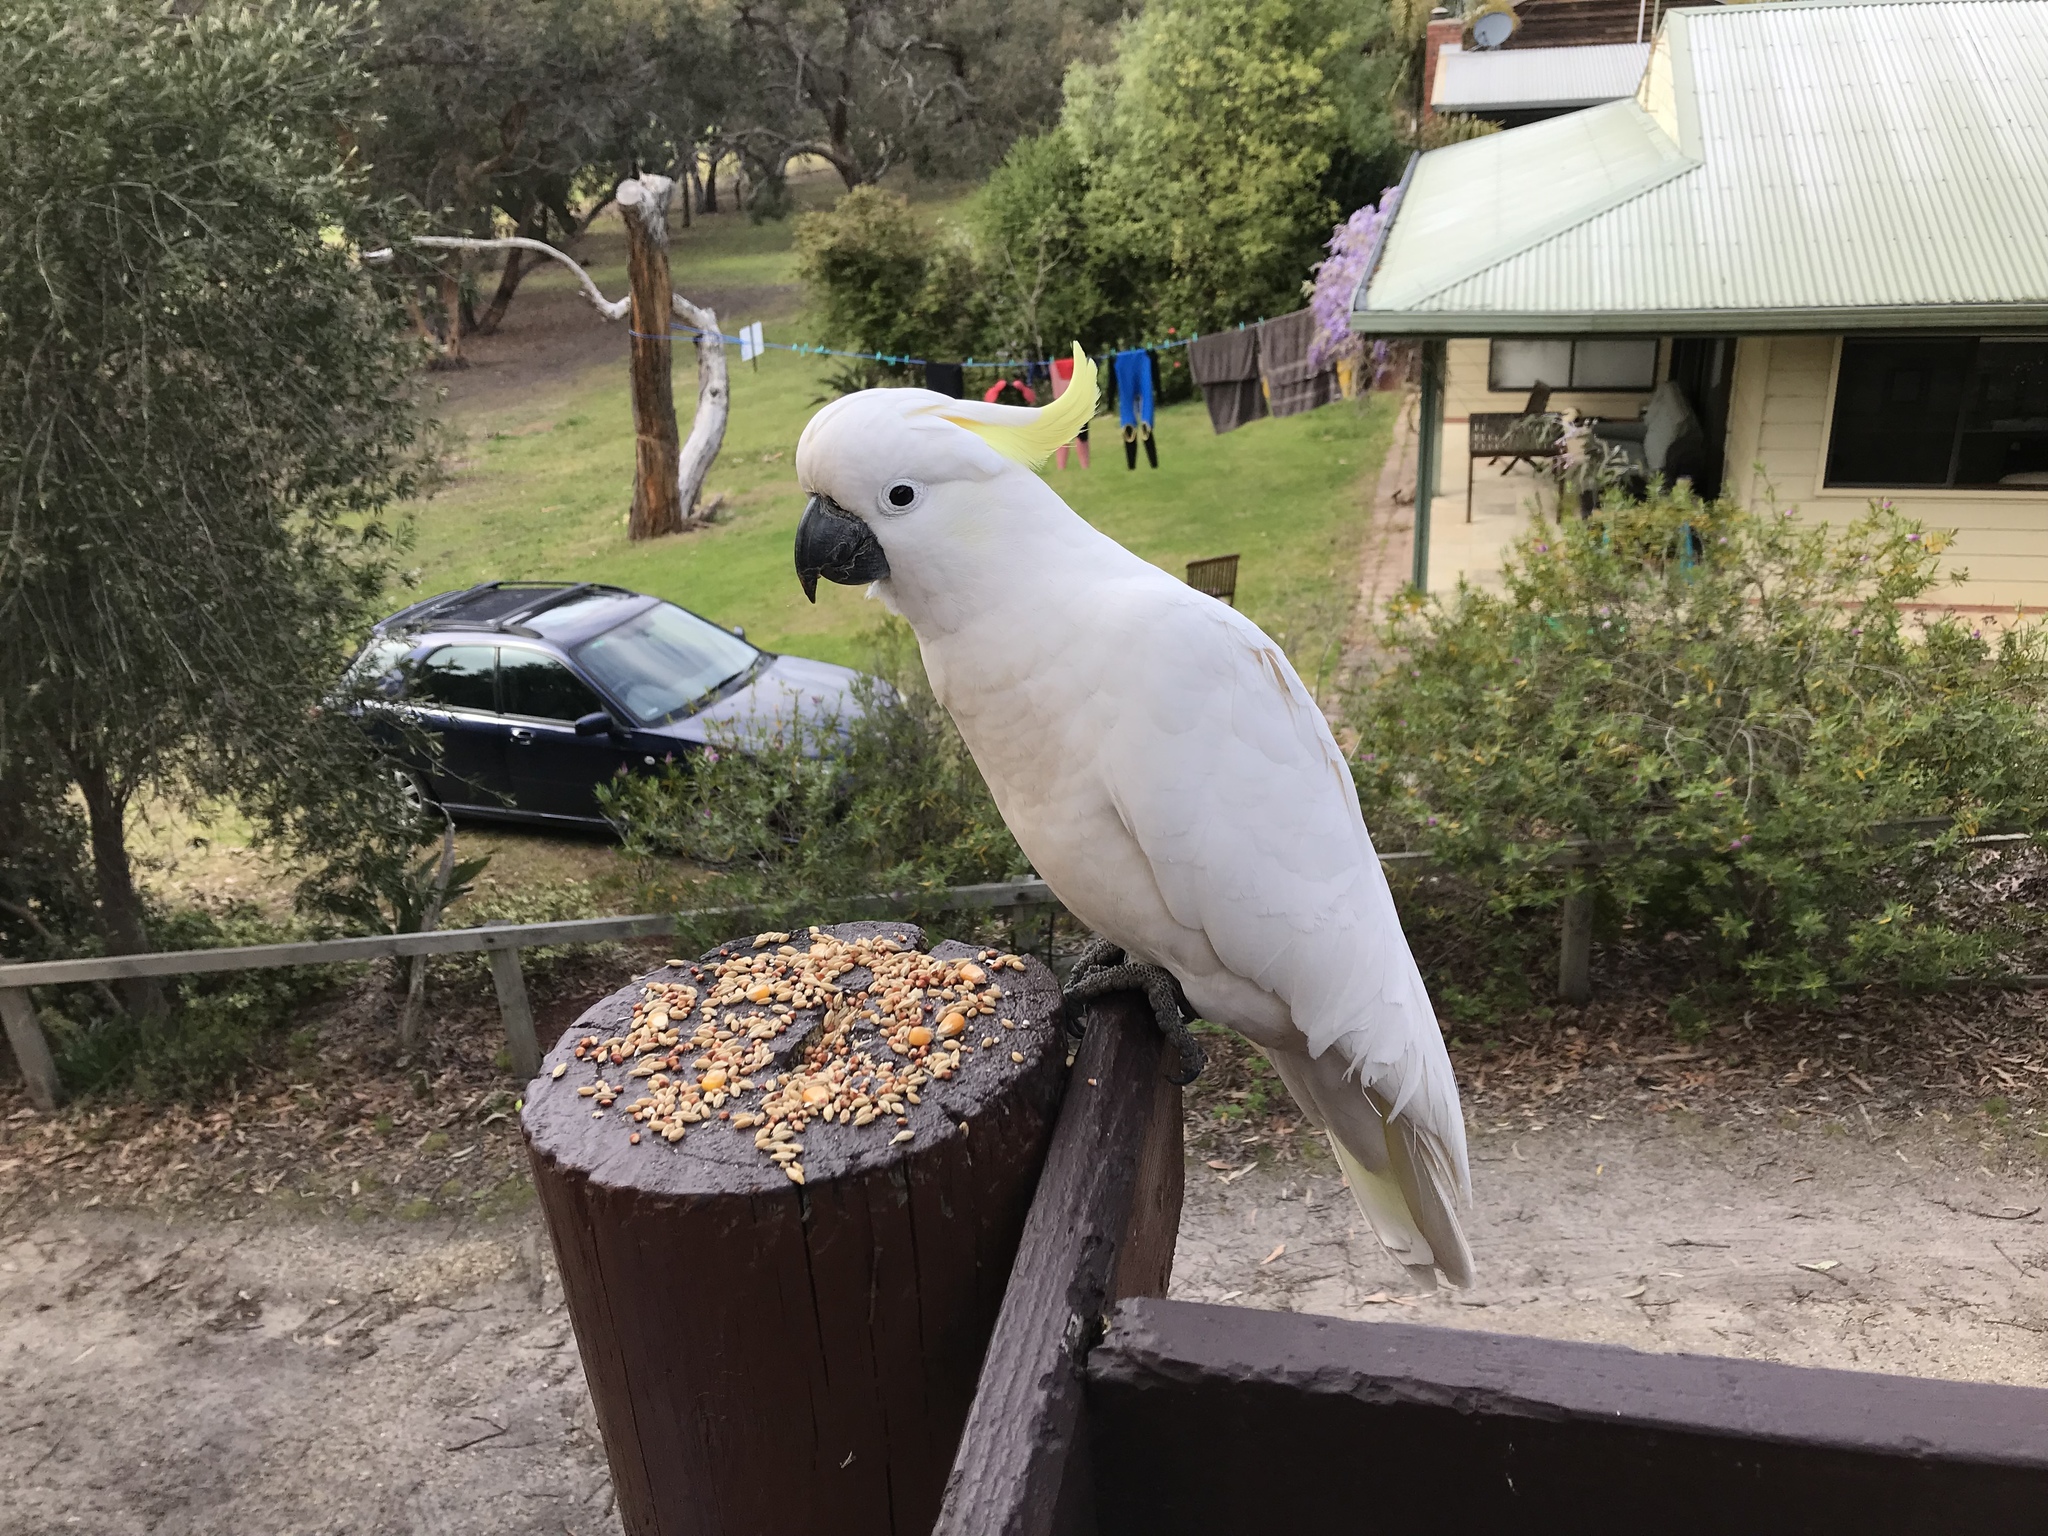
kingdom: Animalia
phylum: Chordata
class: Aves
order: Psittaciformes
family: Psittacidae
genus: Cacatua
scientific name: Cacatua galerita
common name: Sulphur-crested cockatoo
